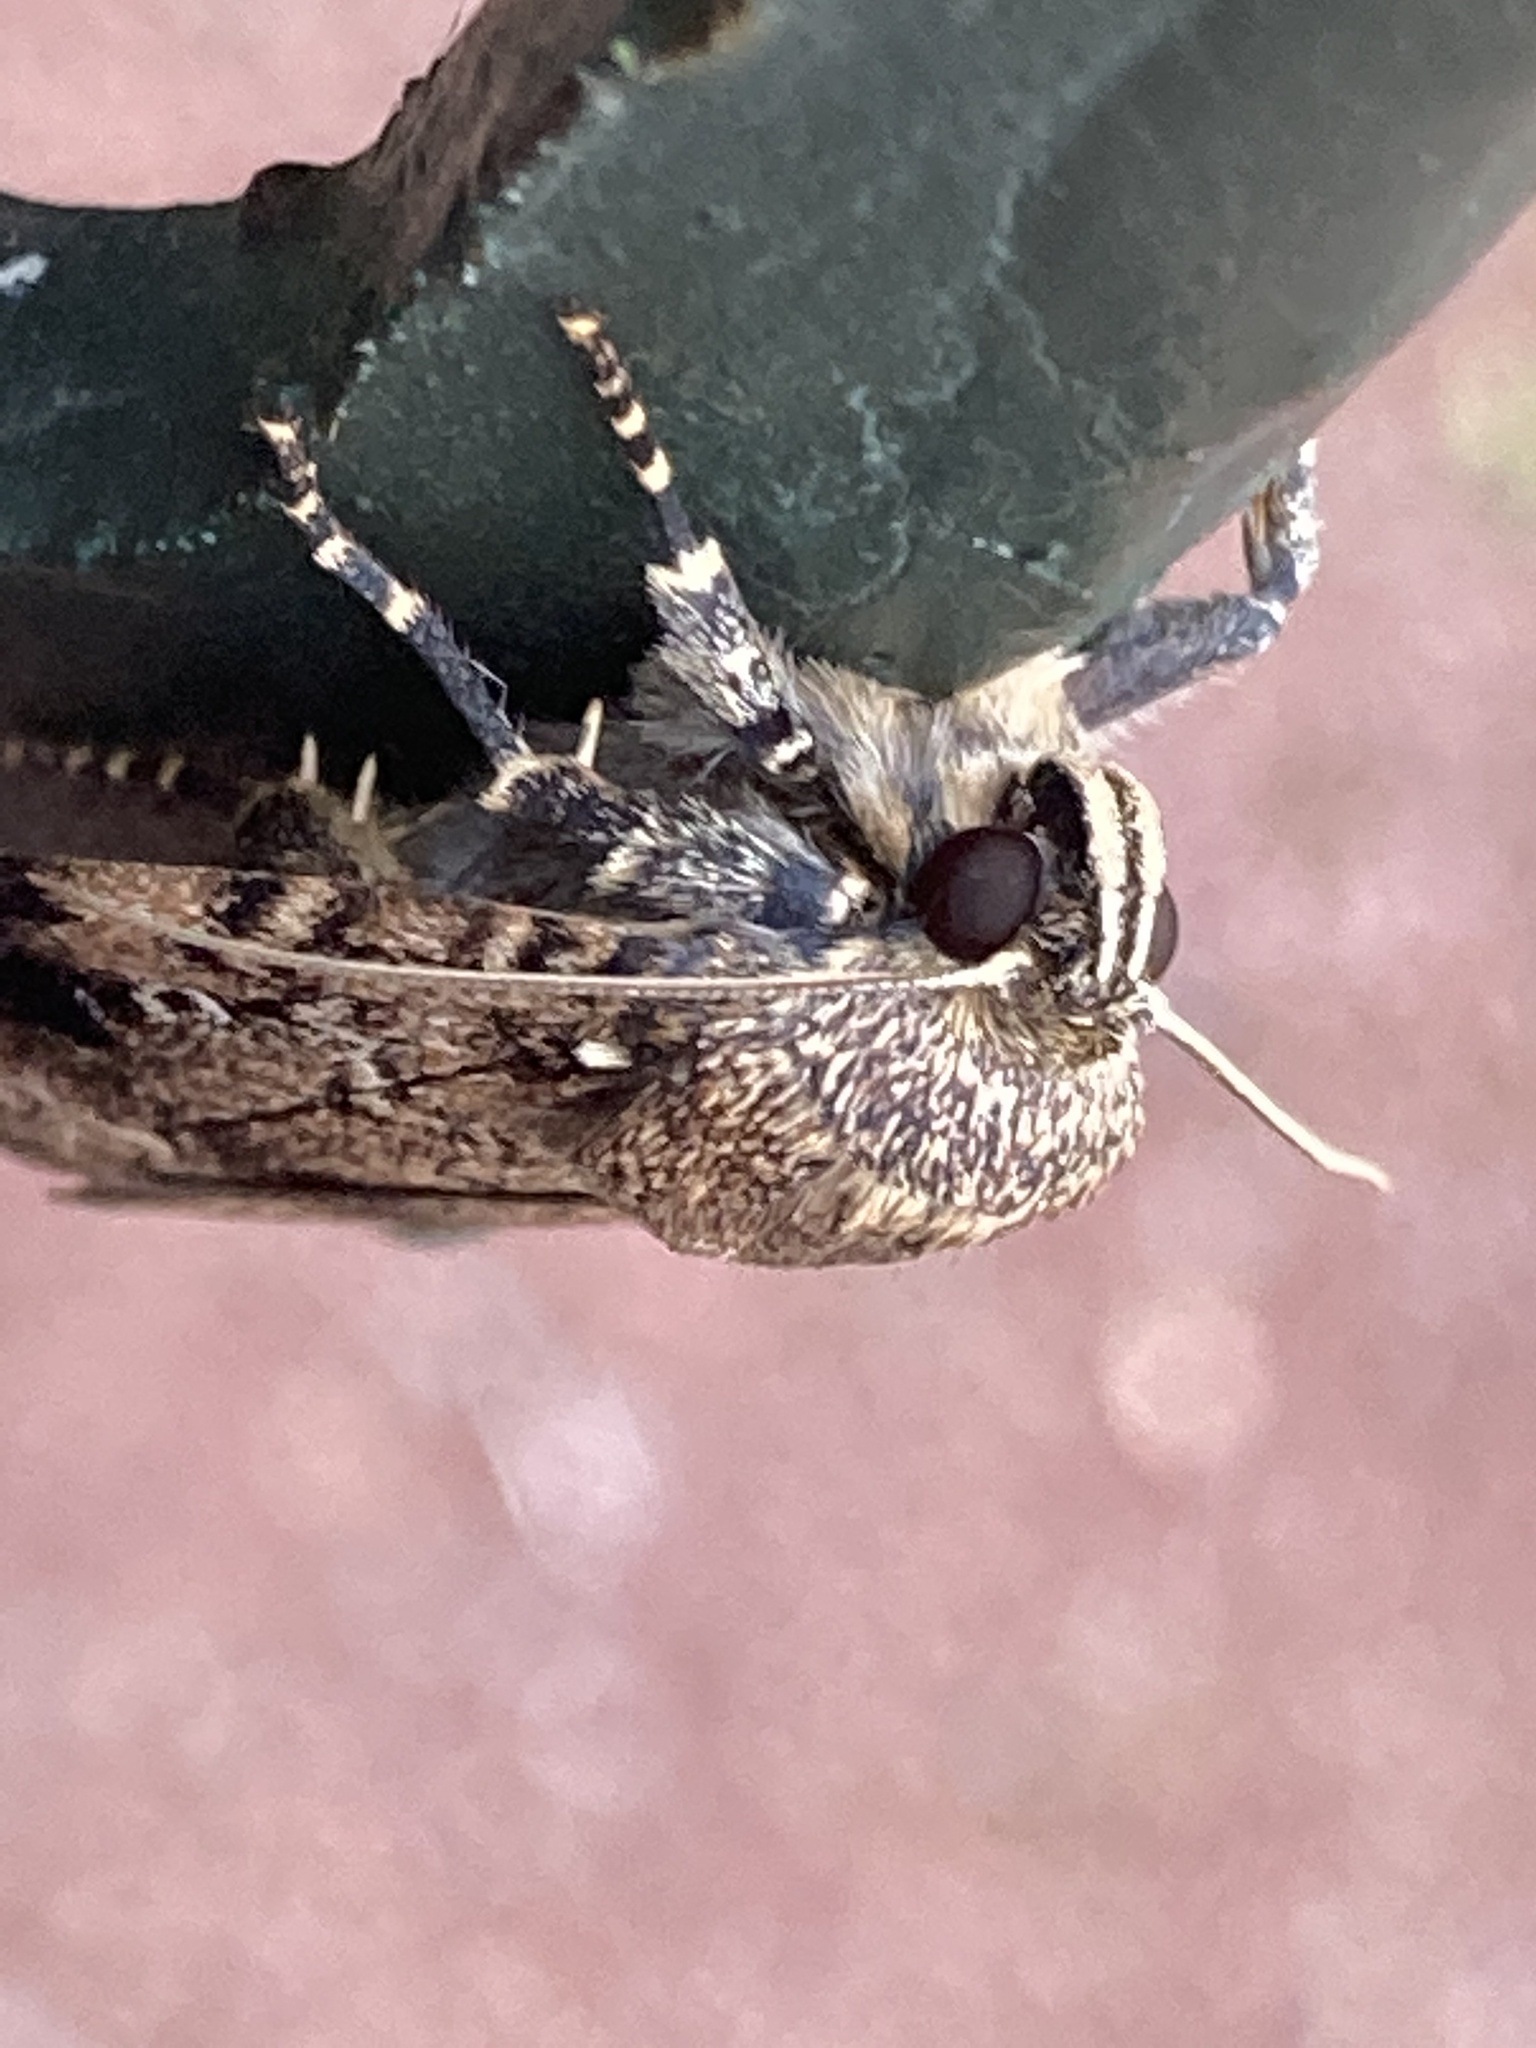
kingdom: Animalia
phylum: Arthropoda
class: Insecta
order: Lepidoptera
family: Noctuidae
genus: Amphipyra
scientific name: Amphipyra pyramidea
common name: Copper underwing
